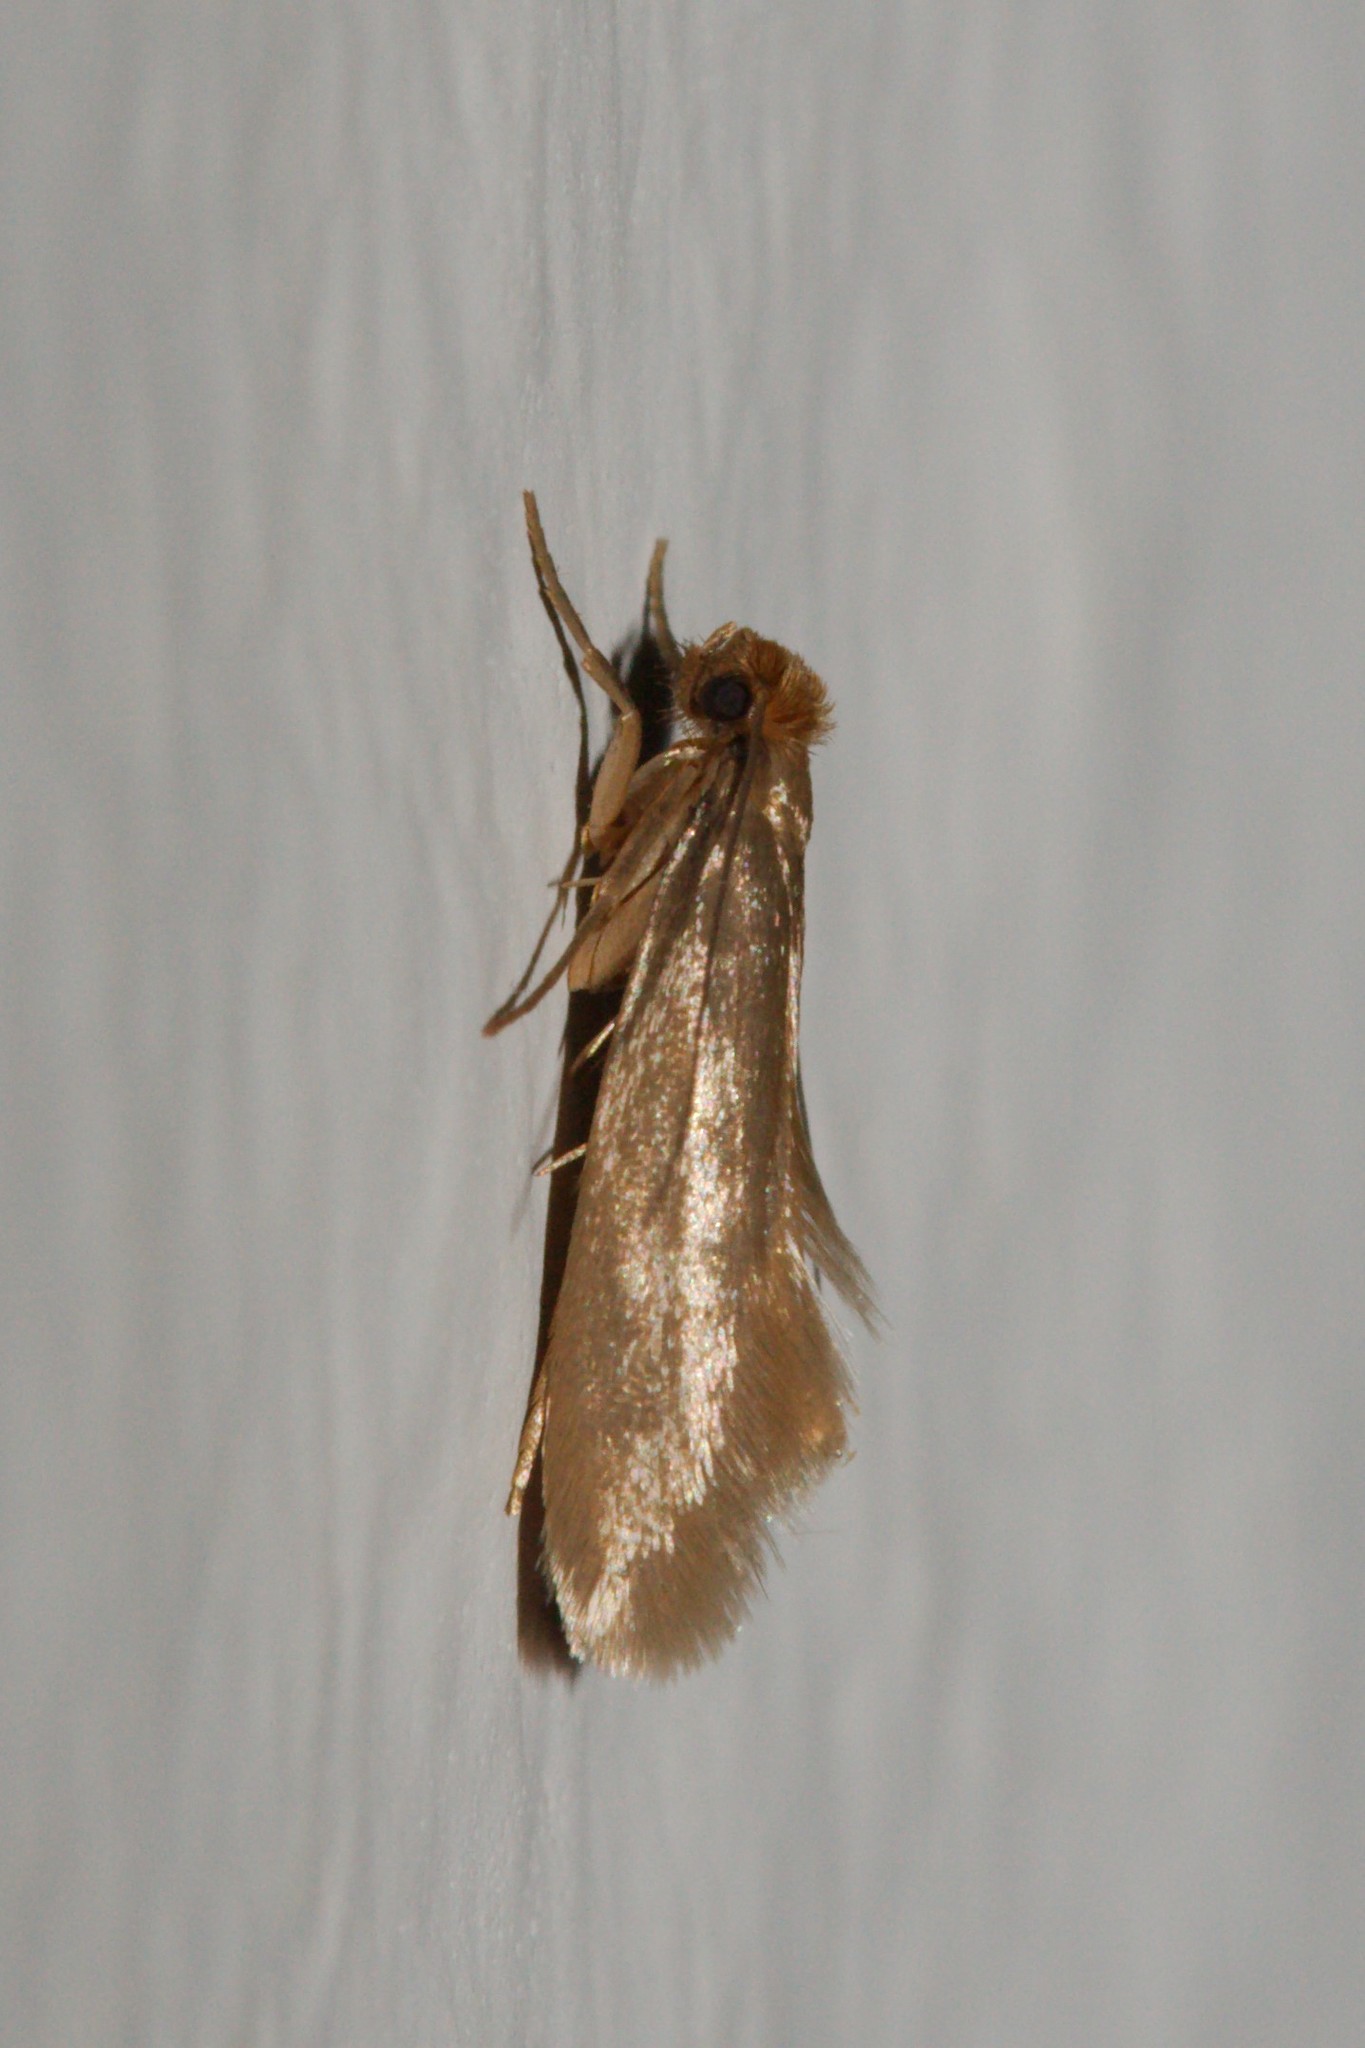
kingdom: Animalia
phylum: Arthropoda
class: Insecta
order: Lepidoptera
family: Tineidae
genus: Tineola
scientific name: Tineola bisselliella
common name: Webbing clothes moth
